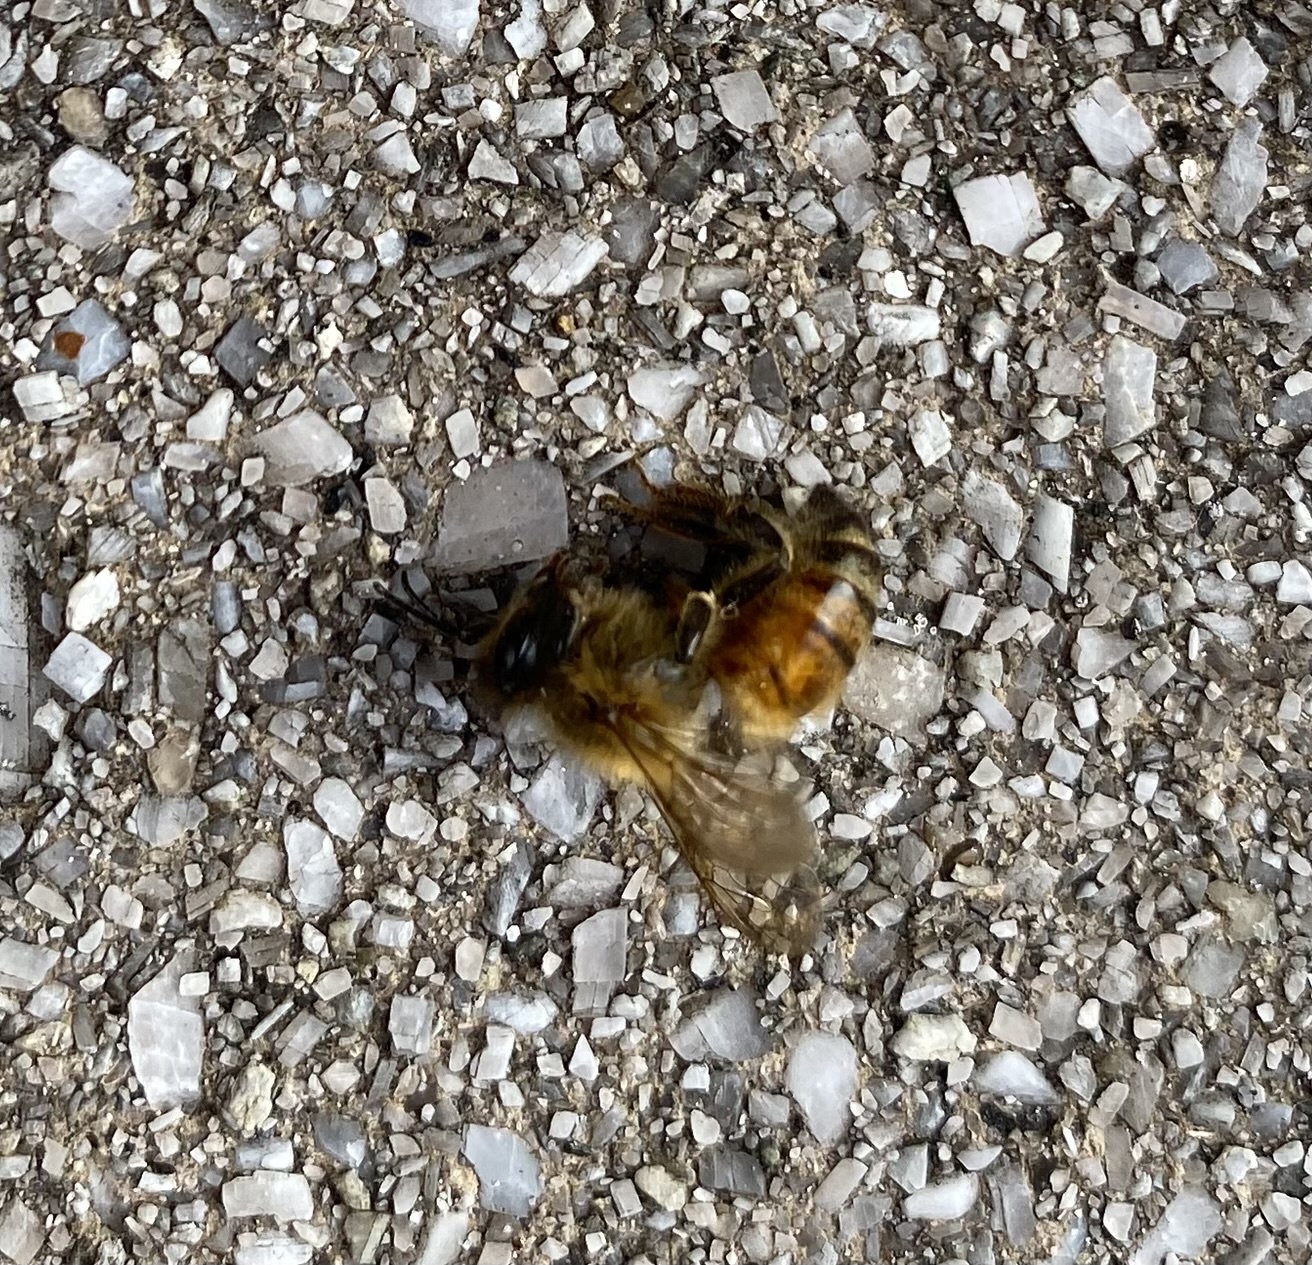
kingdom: Animalia
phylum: Arthropoda
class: Insecta
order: Hymenoptera
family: Apidae
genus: Apis
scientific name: Apis mellifera
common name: Honey bee
